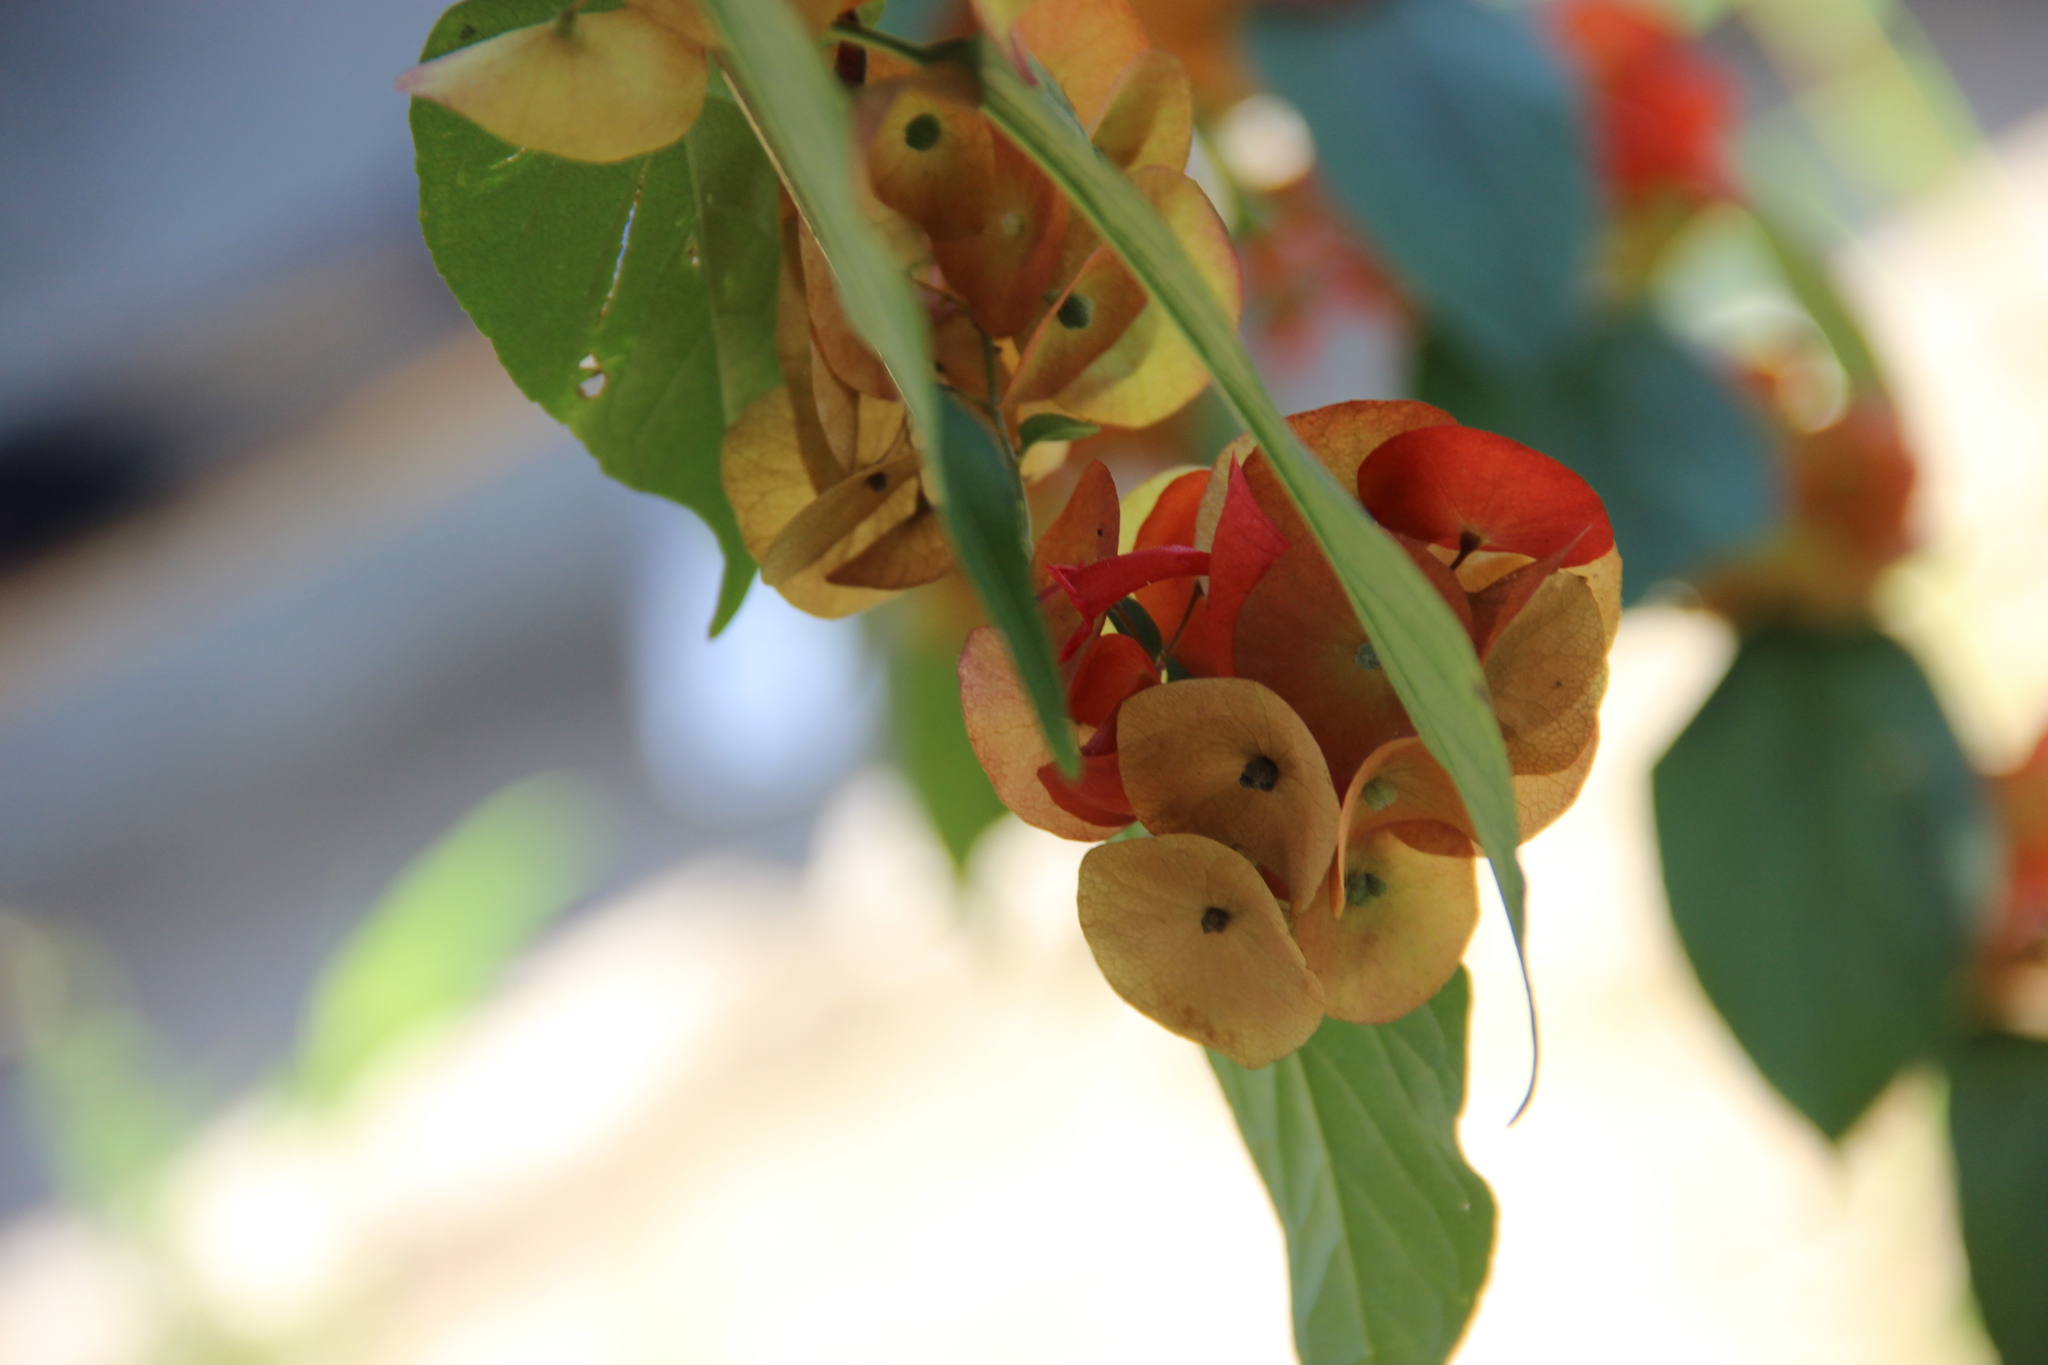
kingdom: Plantae
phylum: Tracheophyta
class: Magnoliopsida
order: Lamiales
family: Lamiaceae
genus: Holmskioldia
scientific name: Holmskioldia sanguinea
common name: Chinese hatplant
